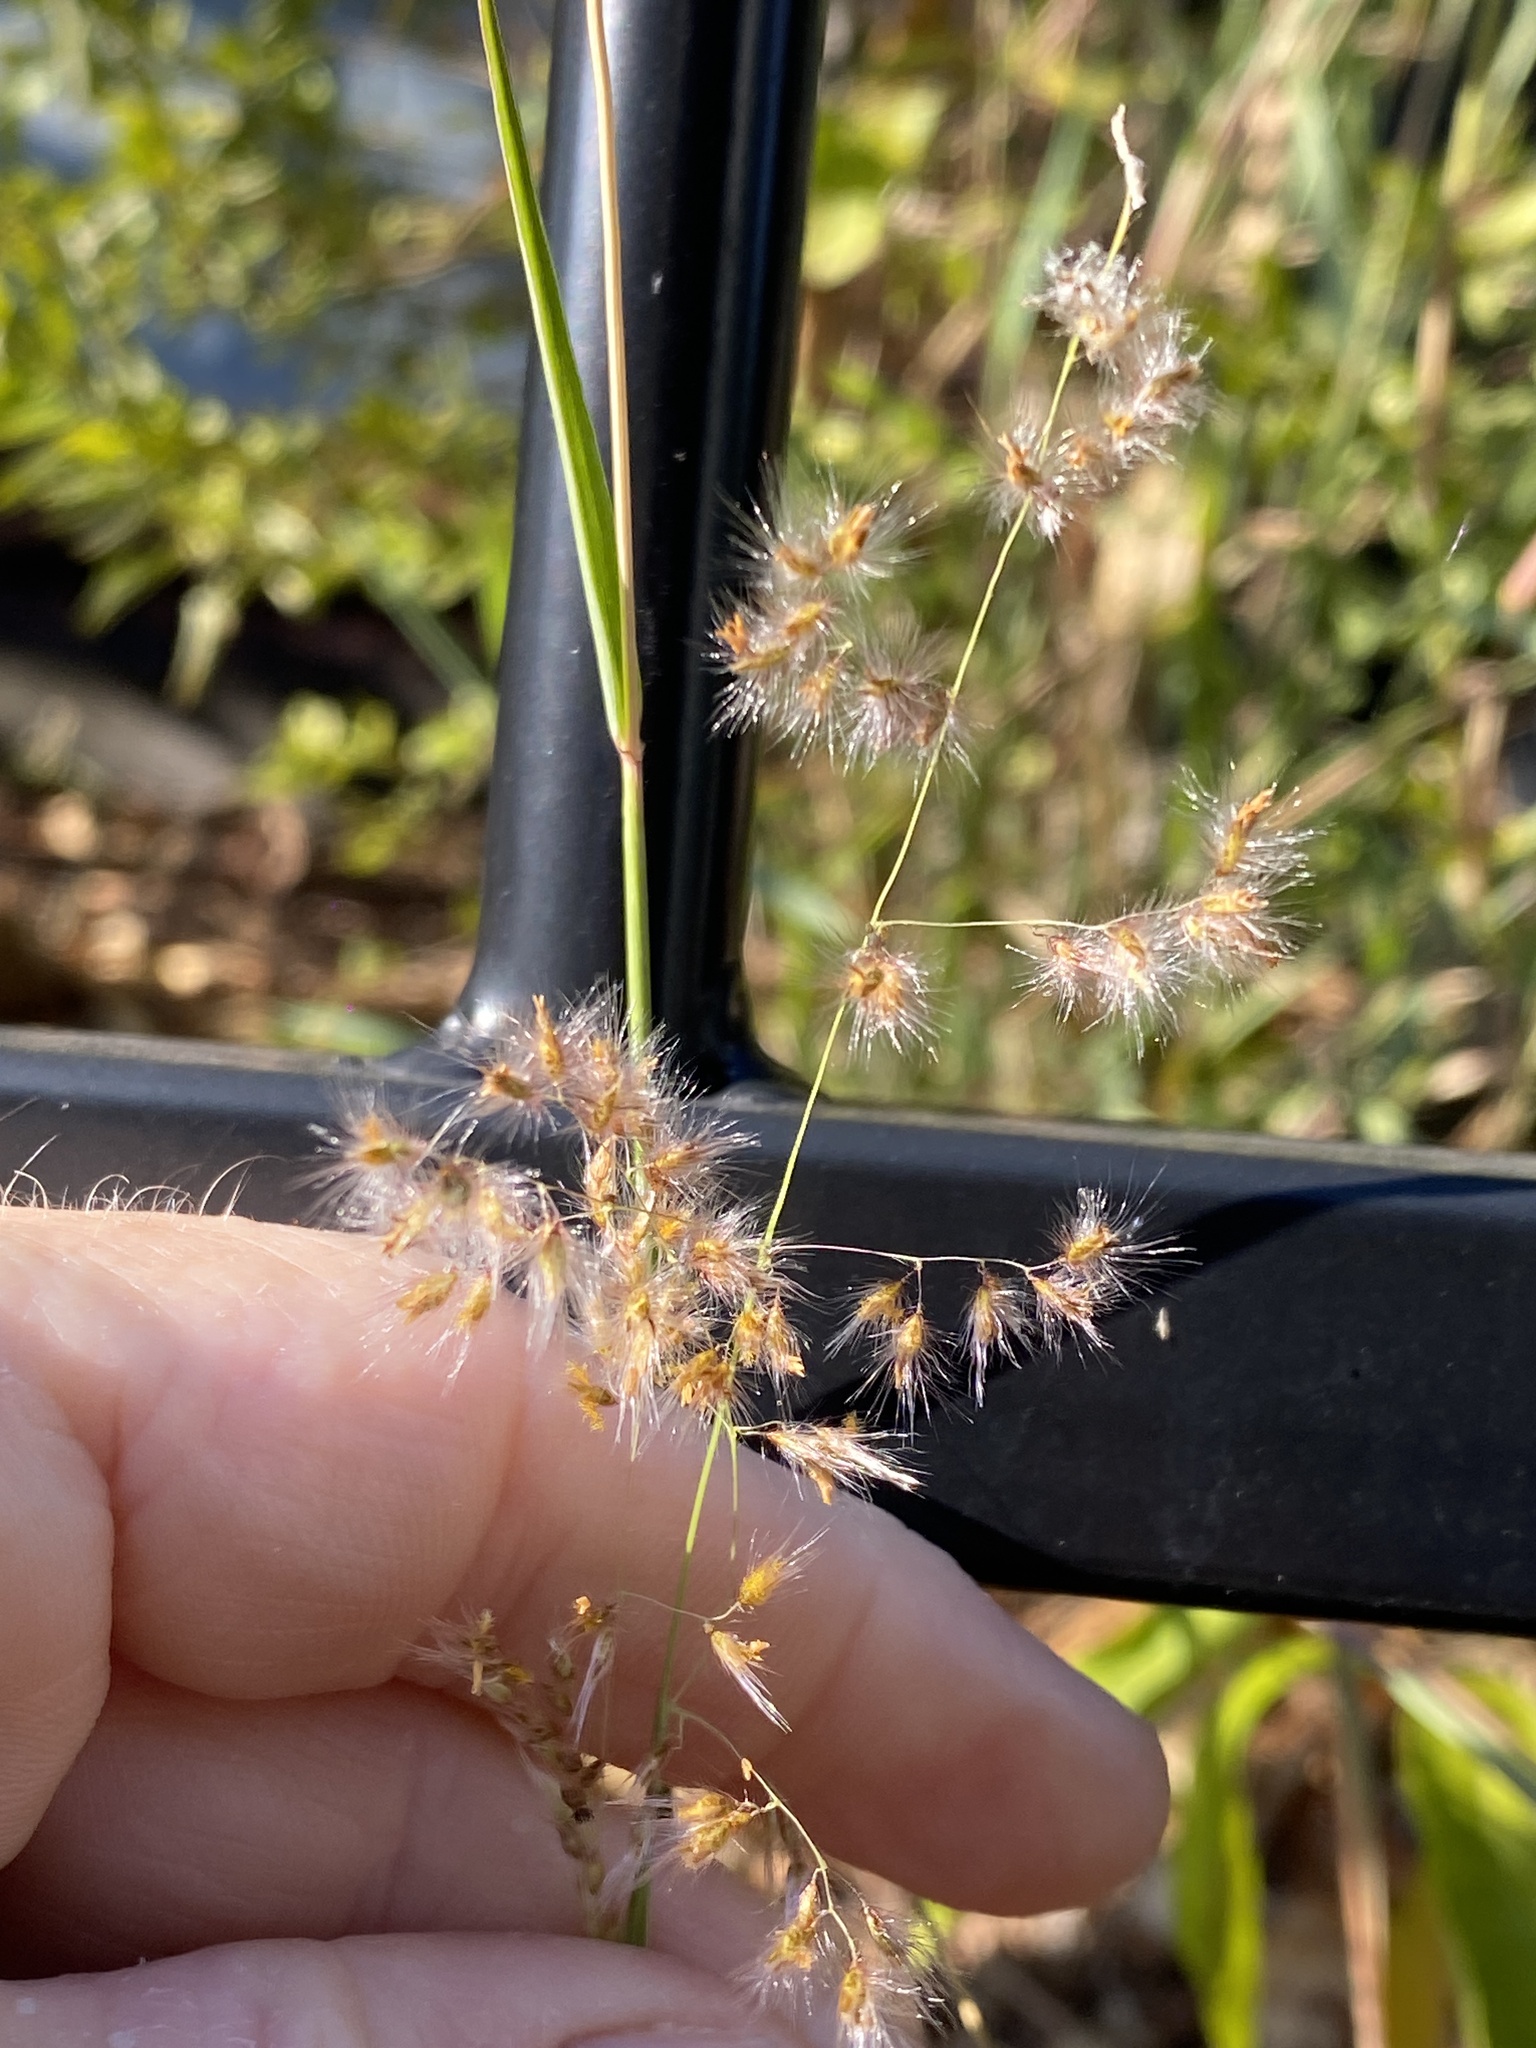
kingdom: Plantae
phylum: Tracheophyta
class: Liliopsida
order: Poales
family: Poaceae
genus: Melinis
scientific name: Melinis repens
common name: Rose natal grass
